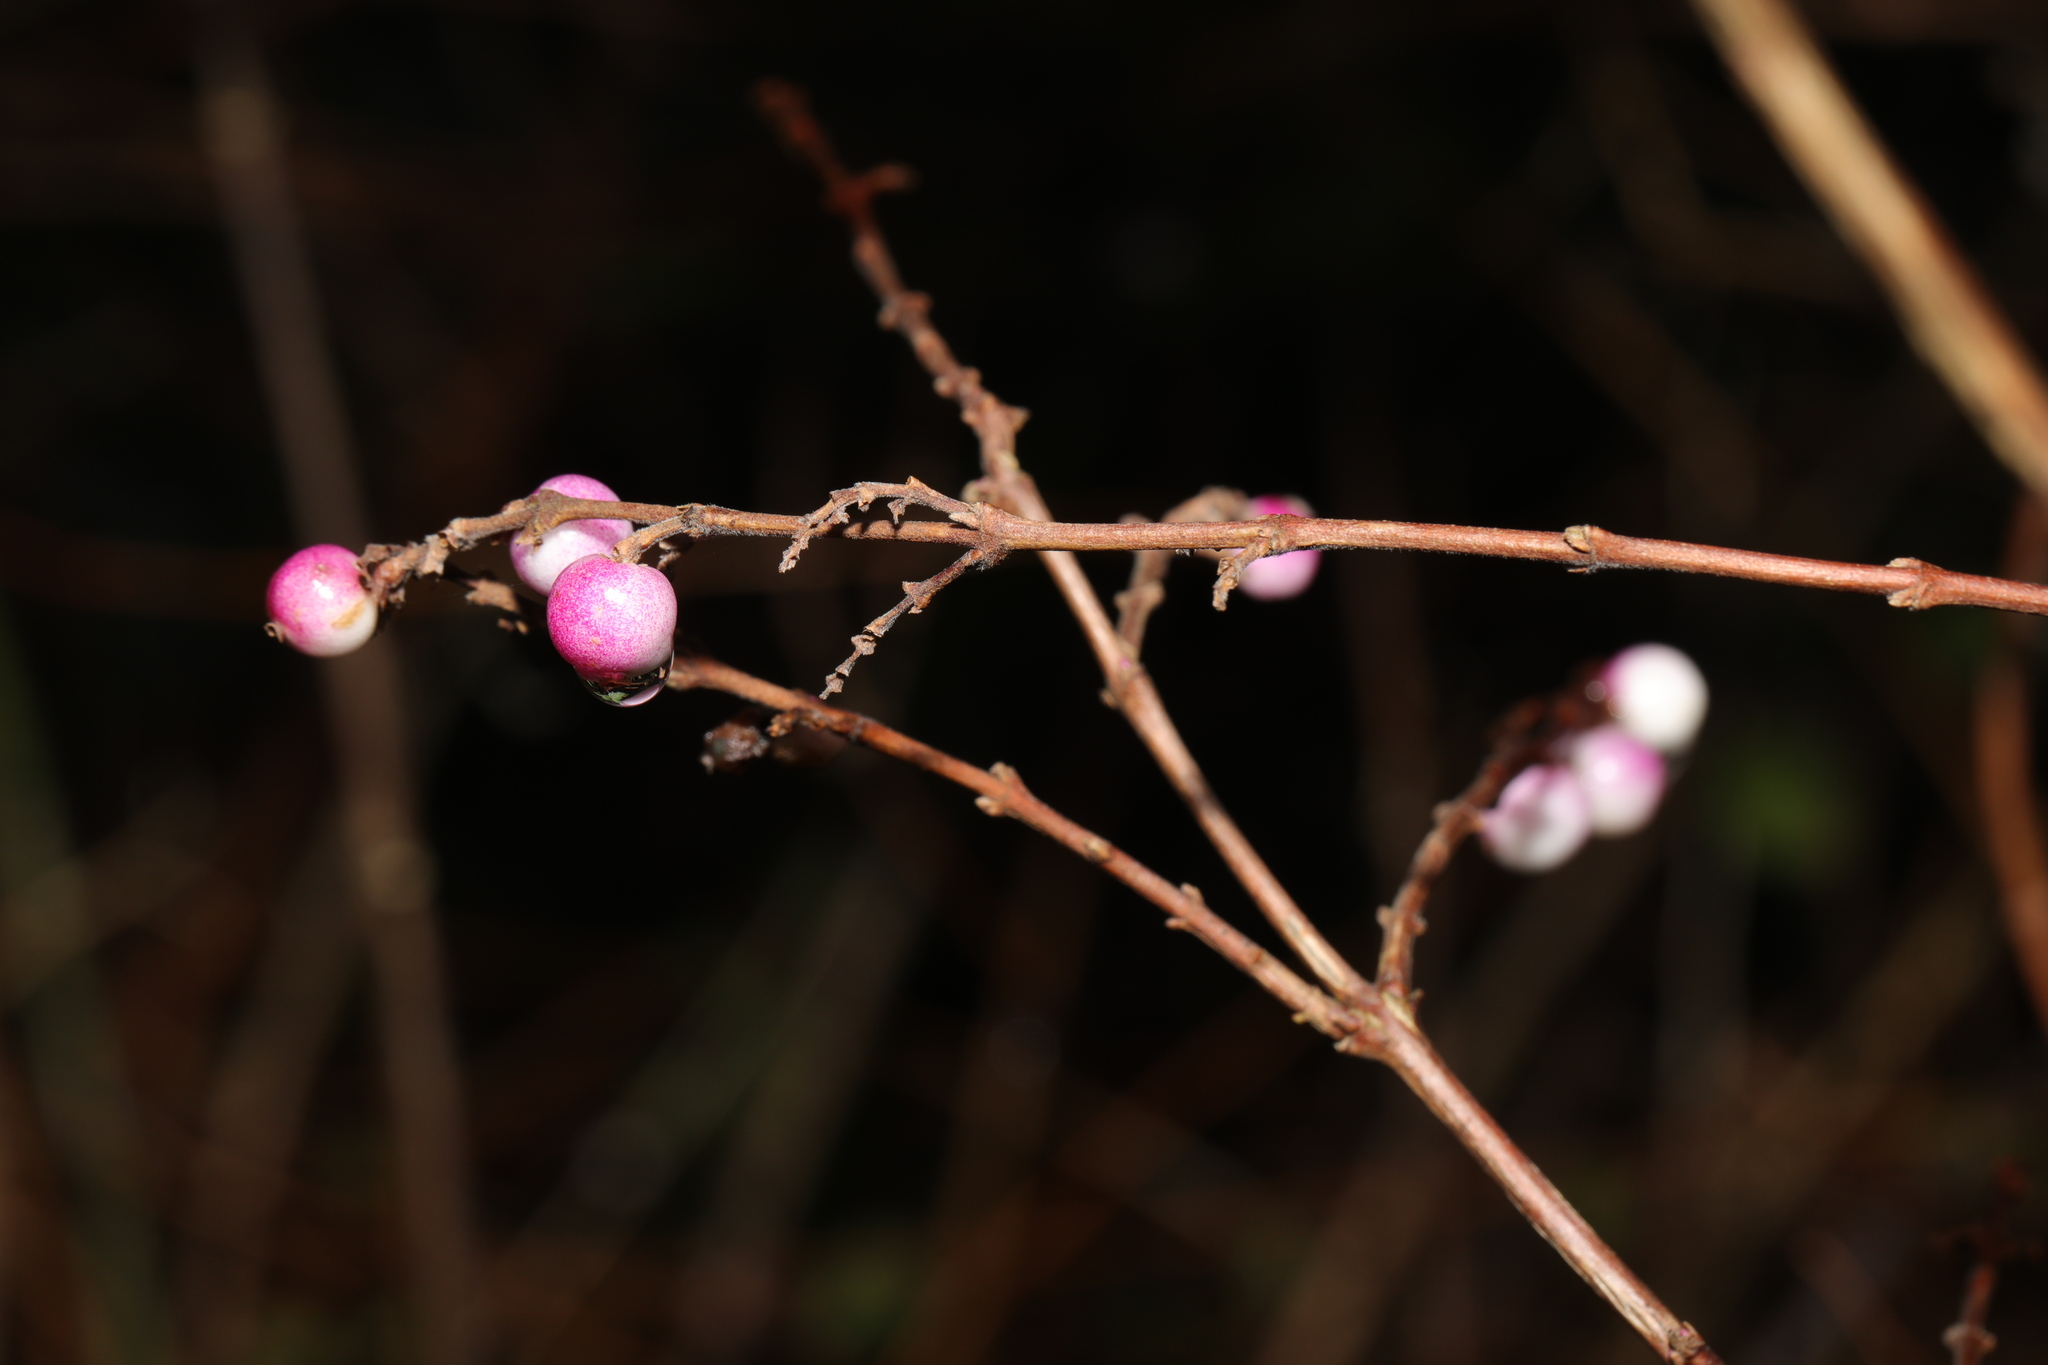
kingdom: Plantae
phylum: Tracheophyta
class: Magnoliopsida
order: Dipsacales
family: Caprifoliaceae
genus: Symphoricarpos
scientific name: Symphoricarpos chenaultii
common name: Hybrid coralberry
